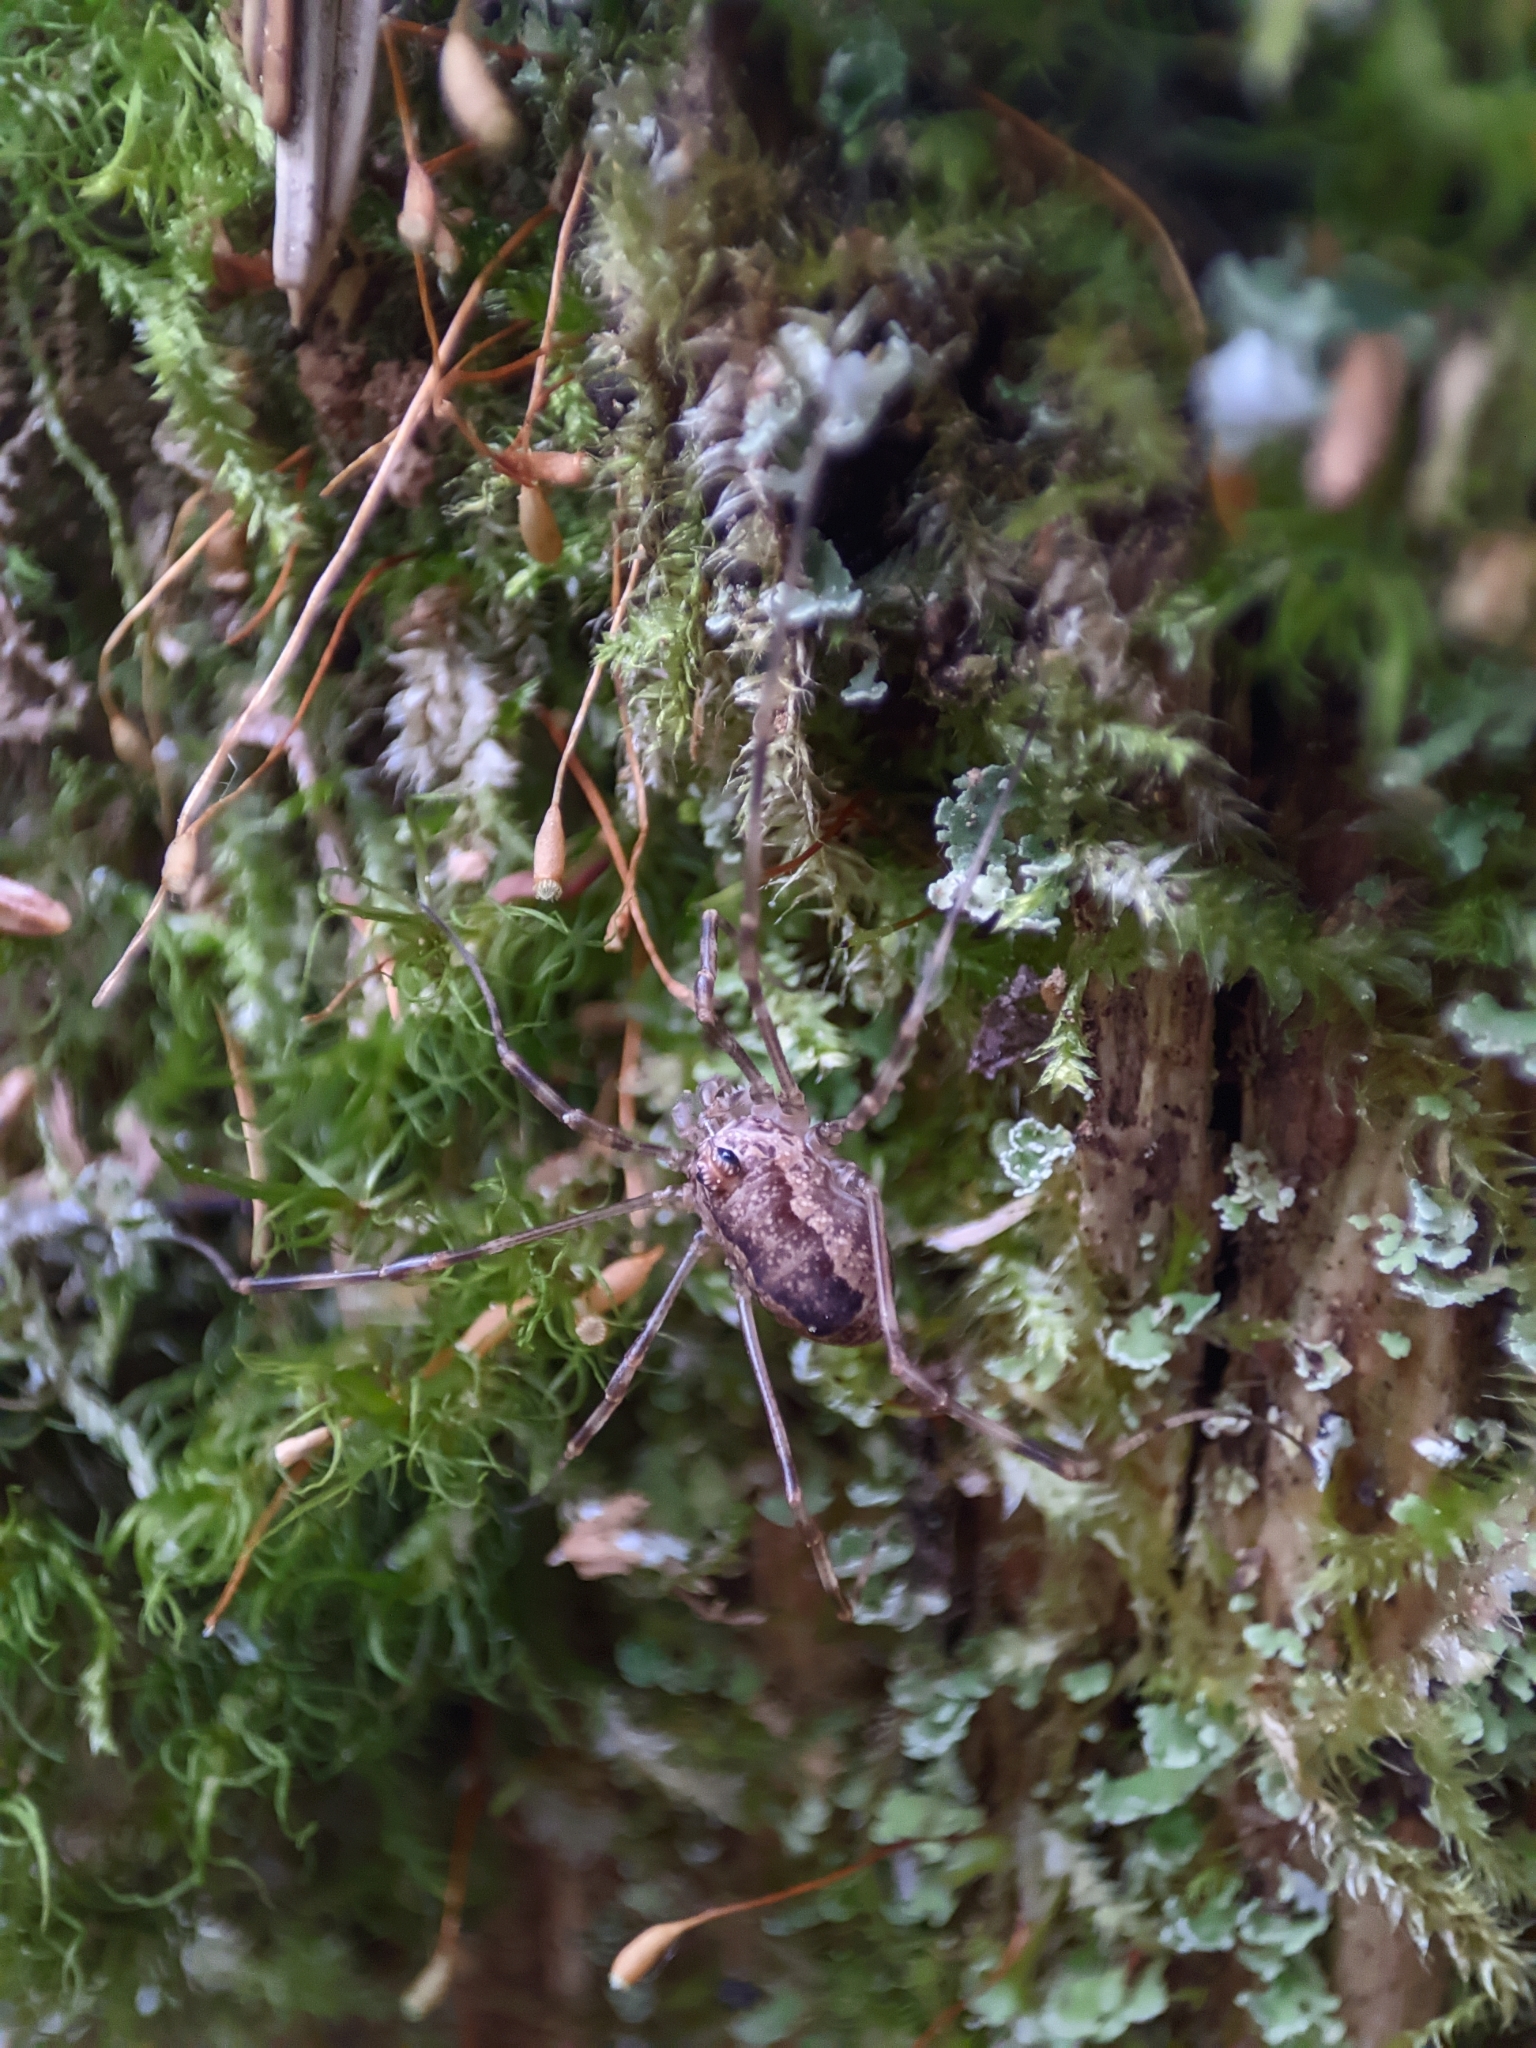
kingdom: Animalia
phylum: Arthropoda
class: Arachnida
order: Opiliones
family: Phalangiidae
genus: Rilaena
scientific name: Rilaena triangularis
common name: Spring harvestman
